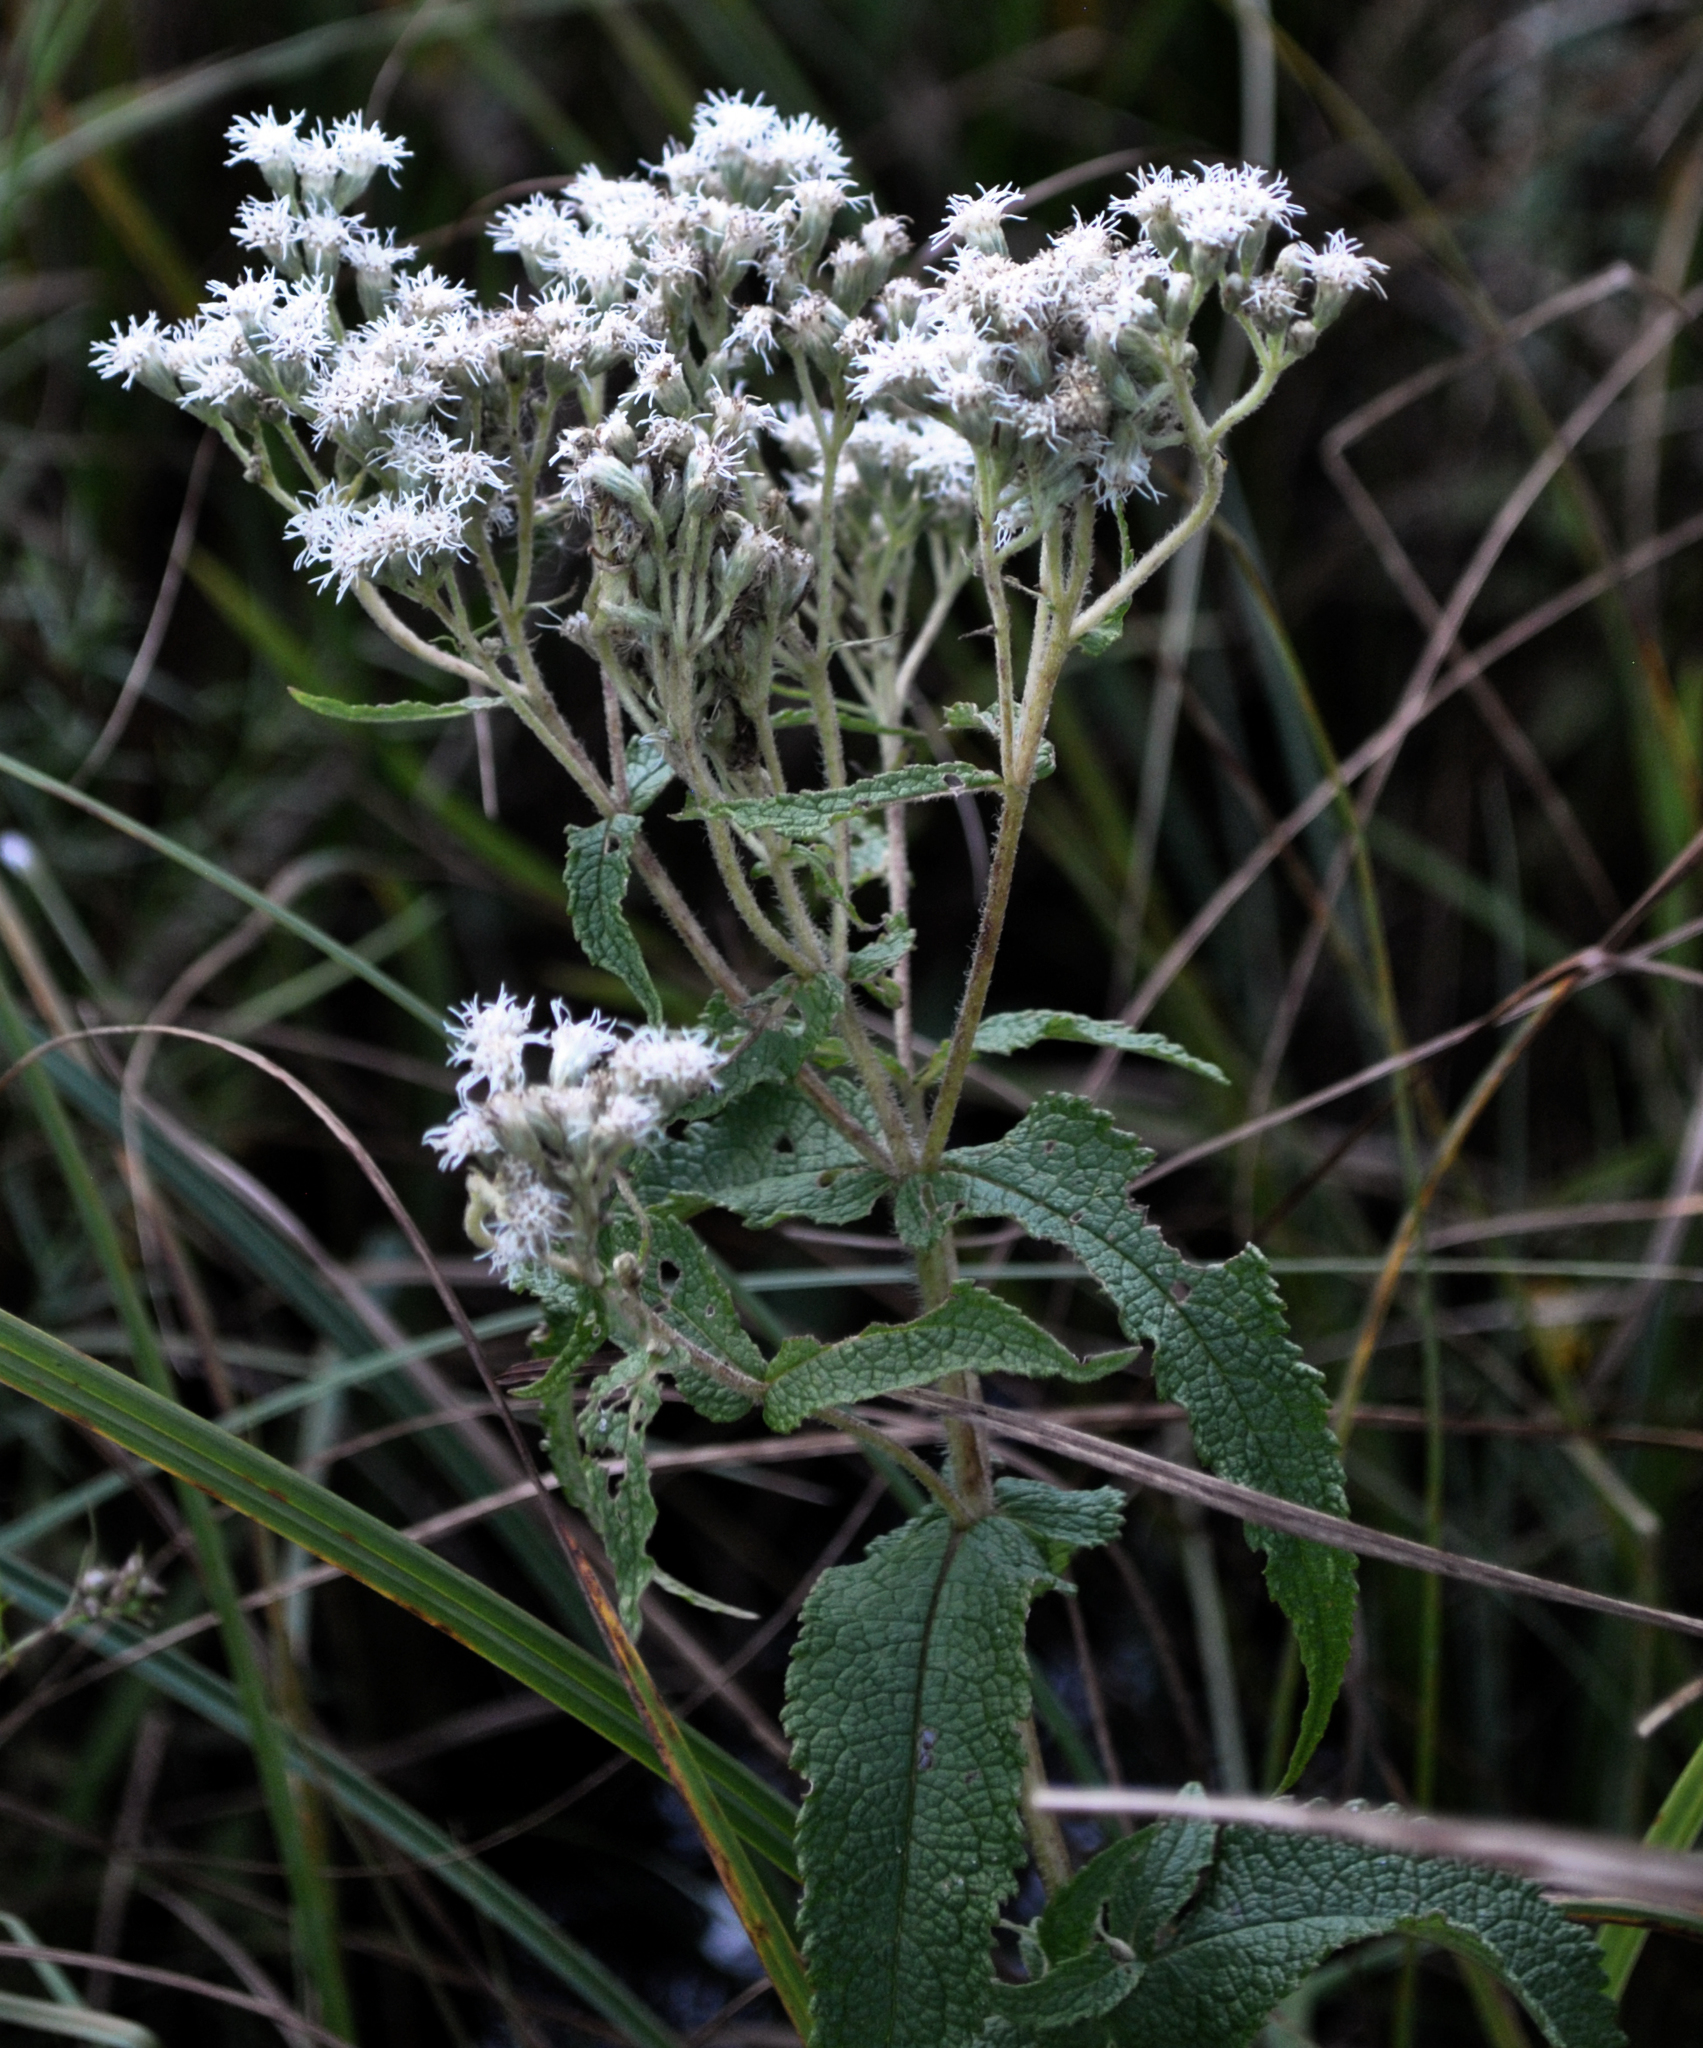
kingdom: Plantae
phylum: Tracheophyta
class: Magnoliopsida
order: Asterales
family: Asteraceae
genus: Eupatorium
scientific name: Eupatorium perfoliatum
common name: Boneset
